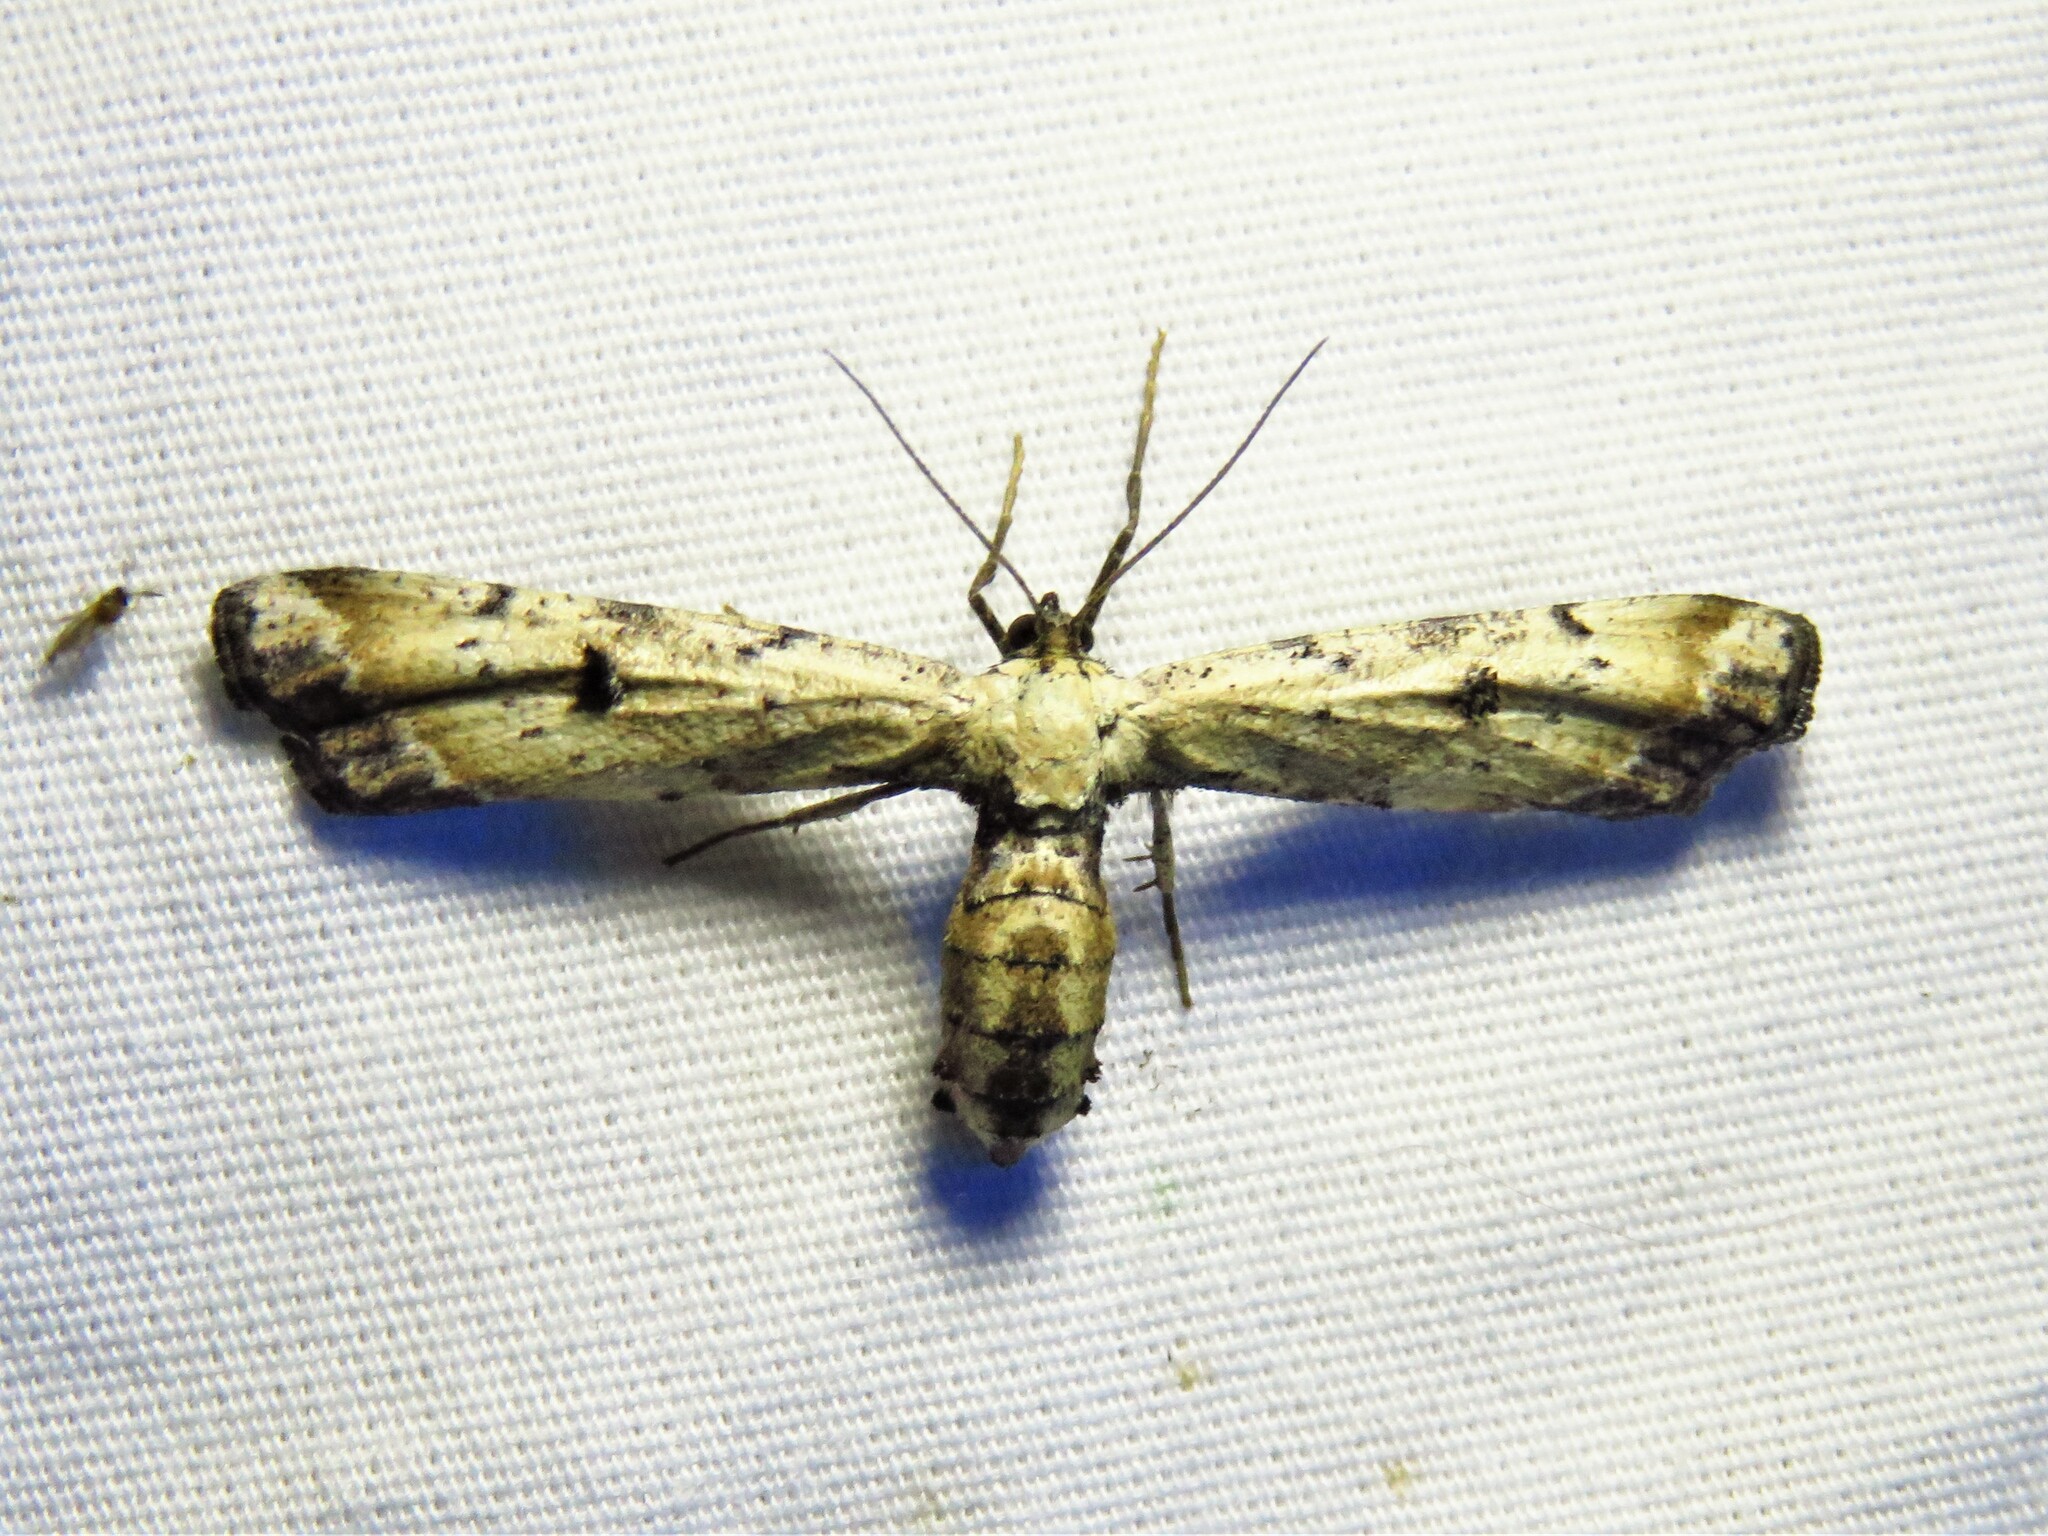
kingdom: Animalia
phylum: Arthropoda
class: Insecta
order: Lepidoptera
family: Geometridae
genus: Tornos
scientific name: Tornos scolopacinaria
